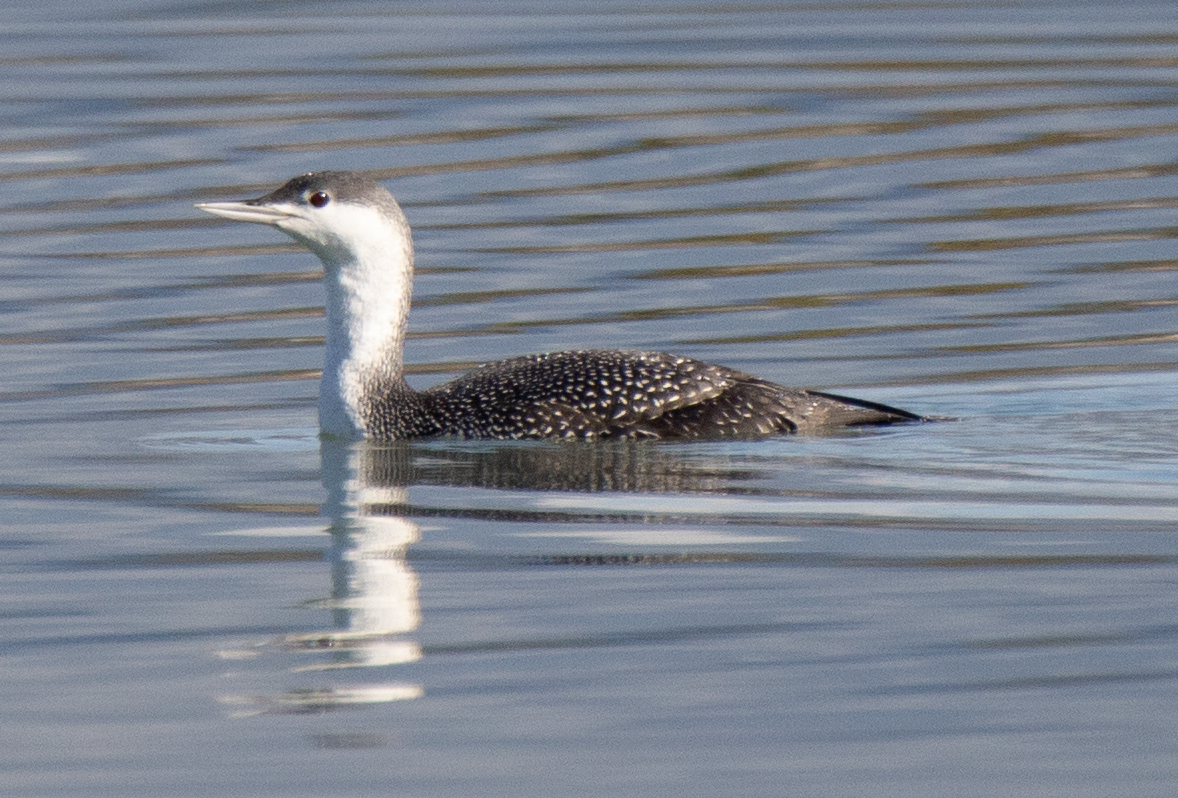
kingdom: Animalia
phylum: Chordata
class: Aves
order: Gaviiformes
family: Gaviidae
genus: Gavia
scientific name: Gavia stellata
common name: Red-throated loon
